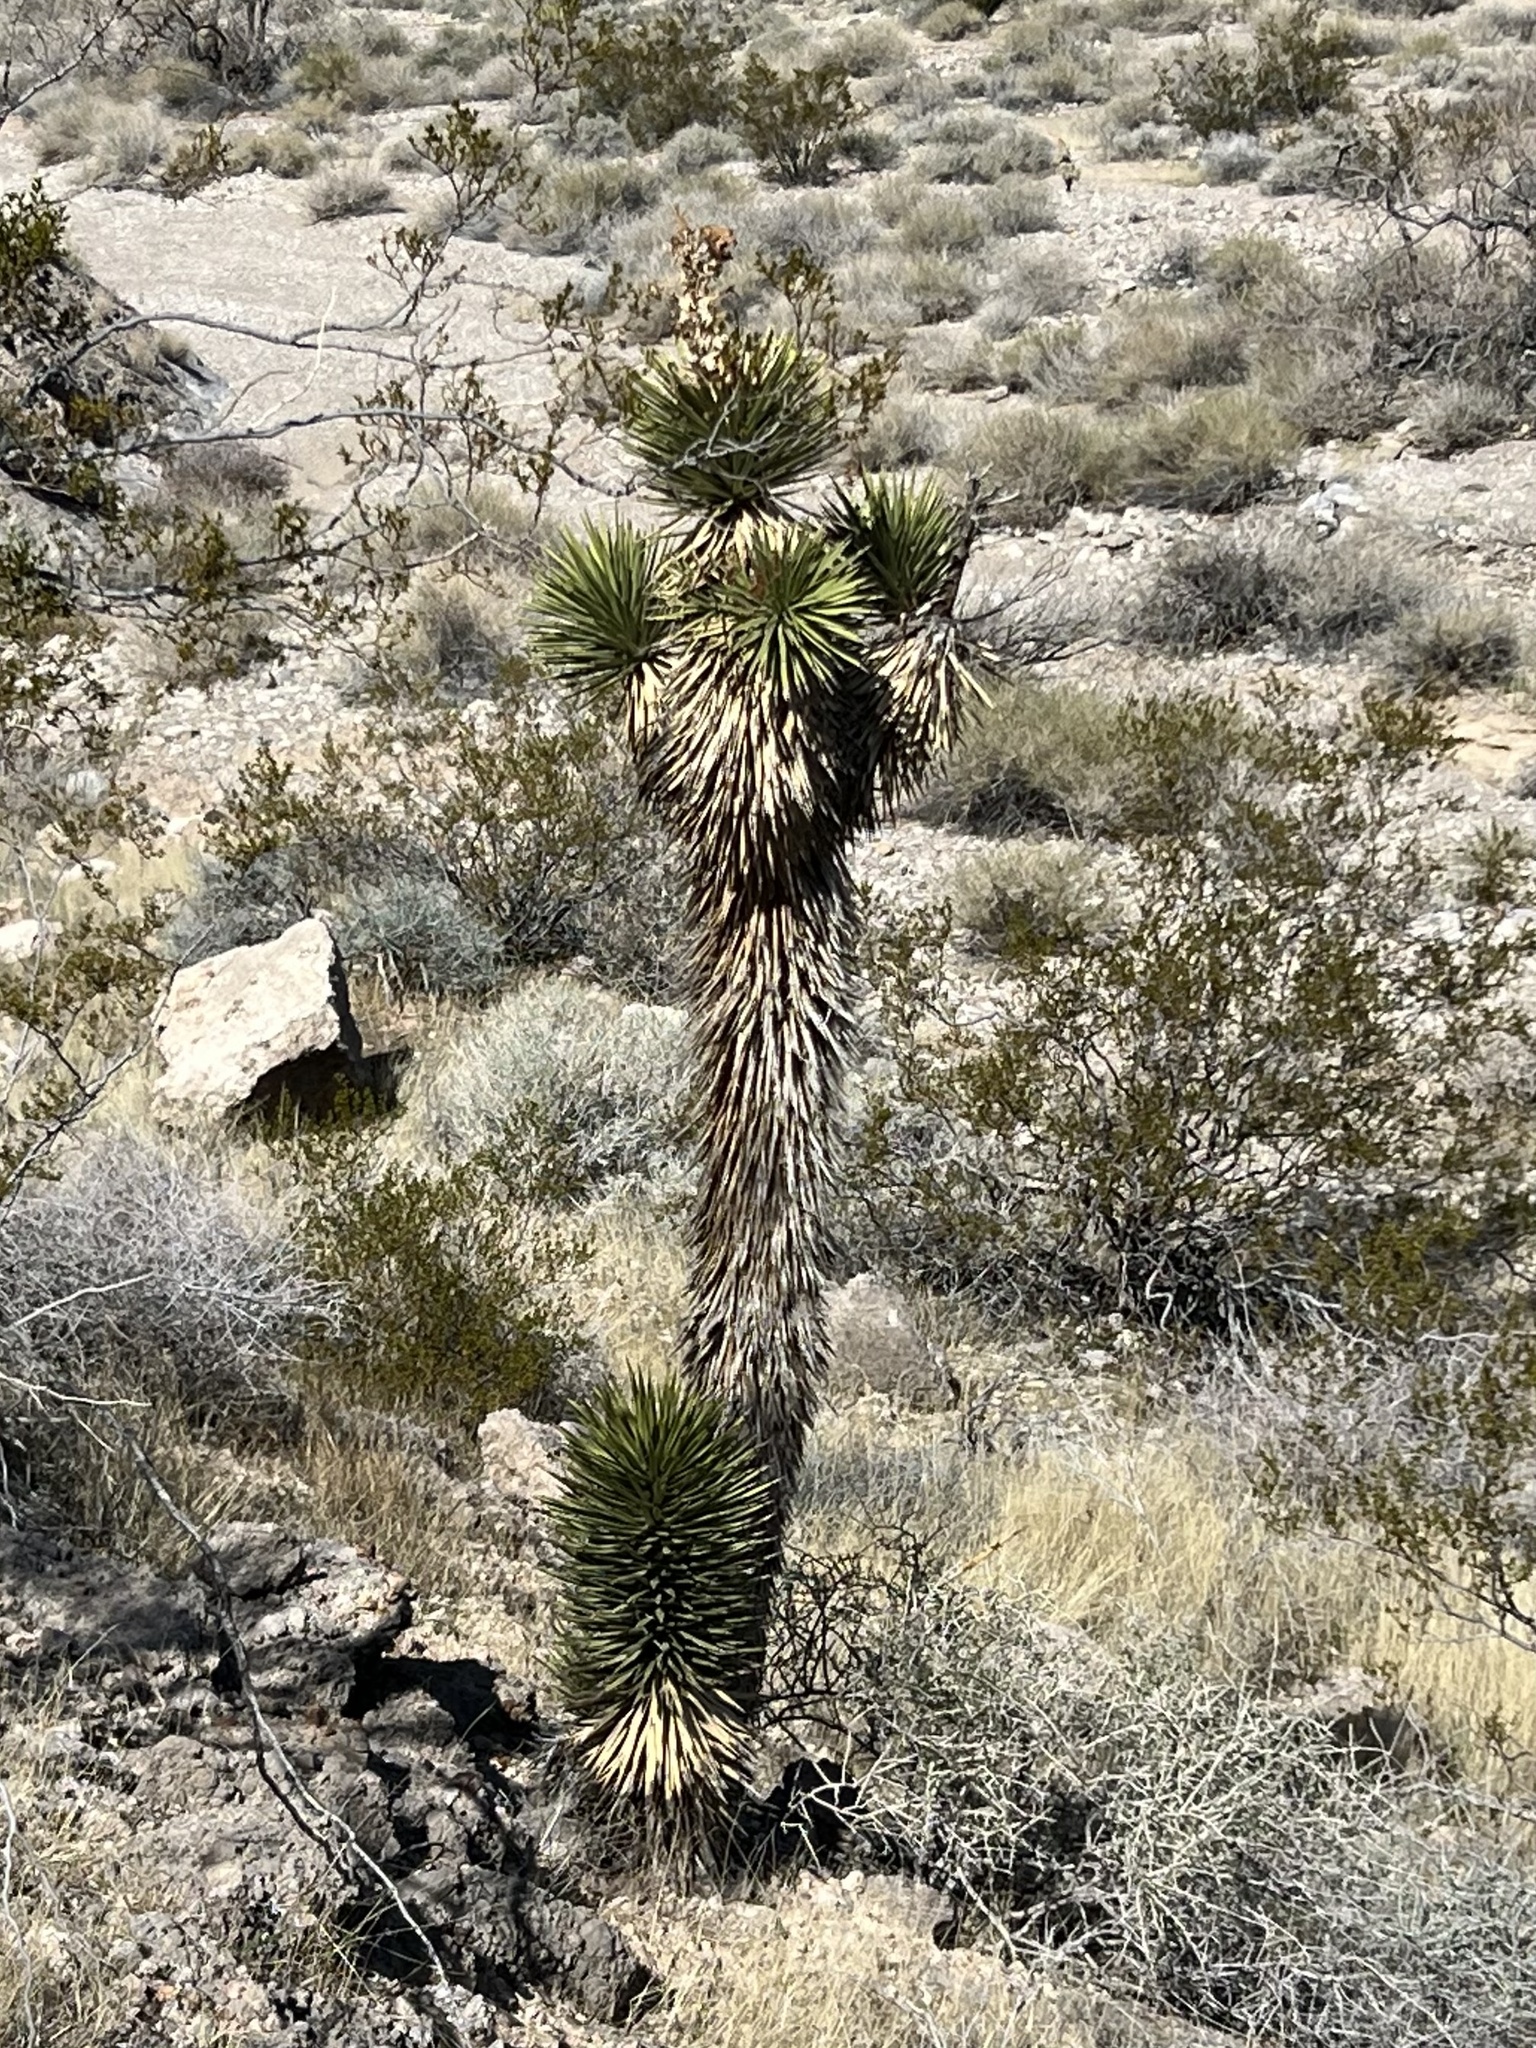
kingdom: Plantae
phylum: Tracheophyta
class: Liliopsida
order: Asparagales
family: Asparagaceae
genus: Yucca
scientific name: Yucca brevifolia
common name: Joshua tree
